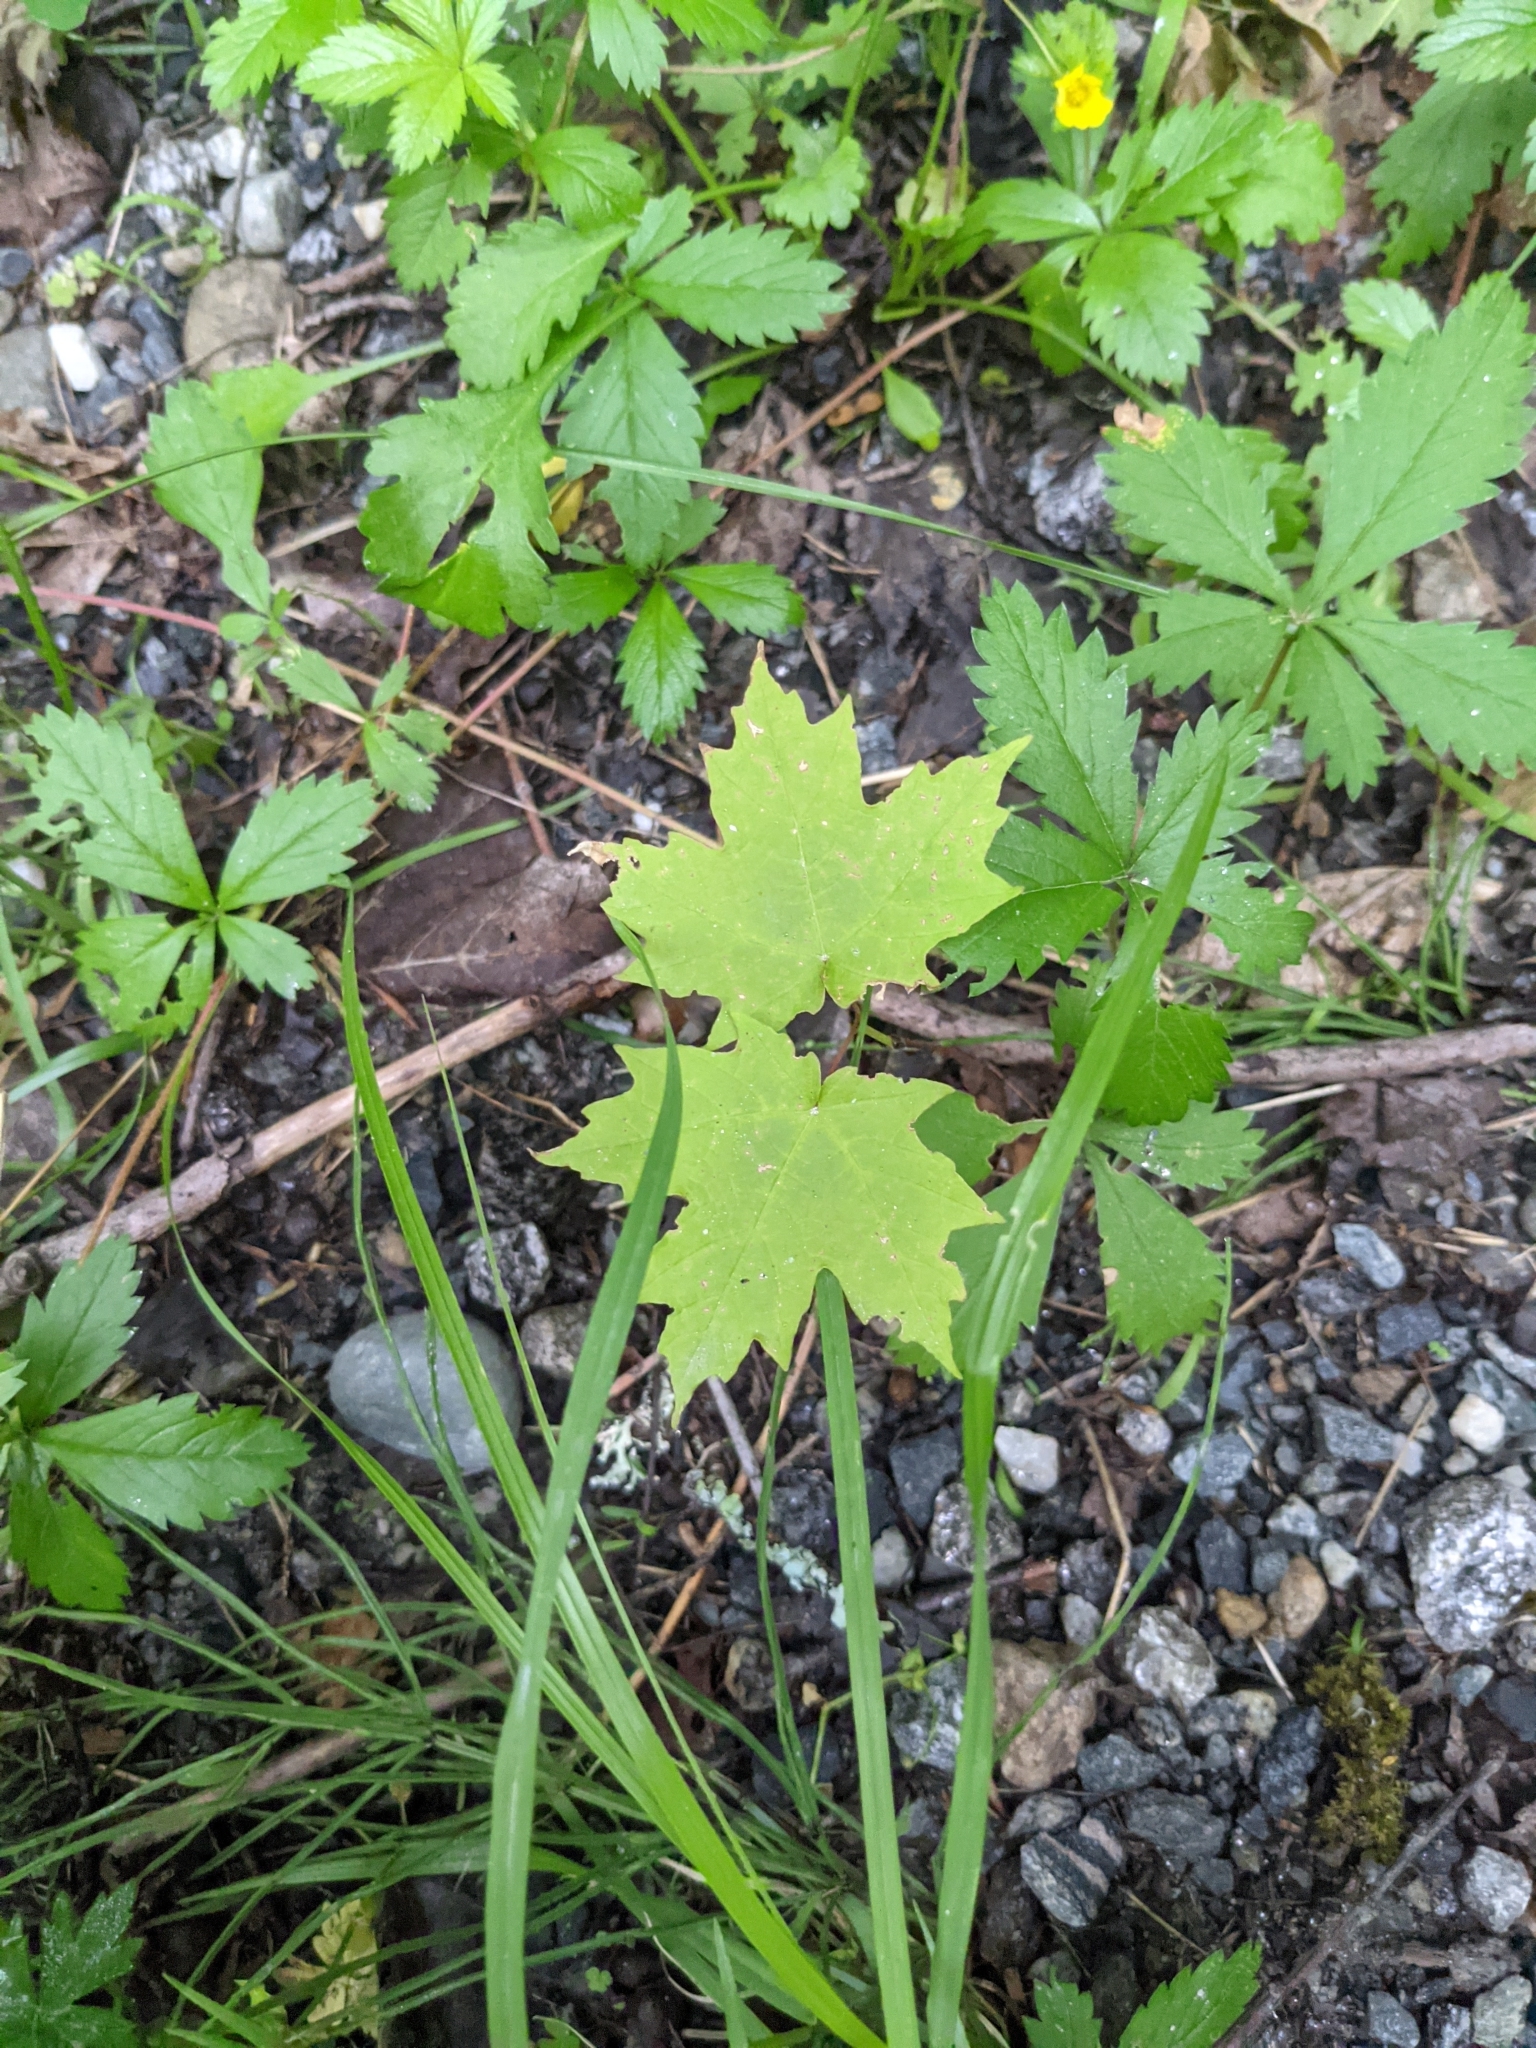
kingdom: Plantae
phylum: Tracheophyta
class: Magnoliopsida
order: Sapindales
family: Sapindaceae
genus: Acer
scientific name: Acer saccharum
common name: Sugar maple
